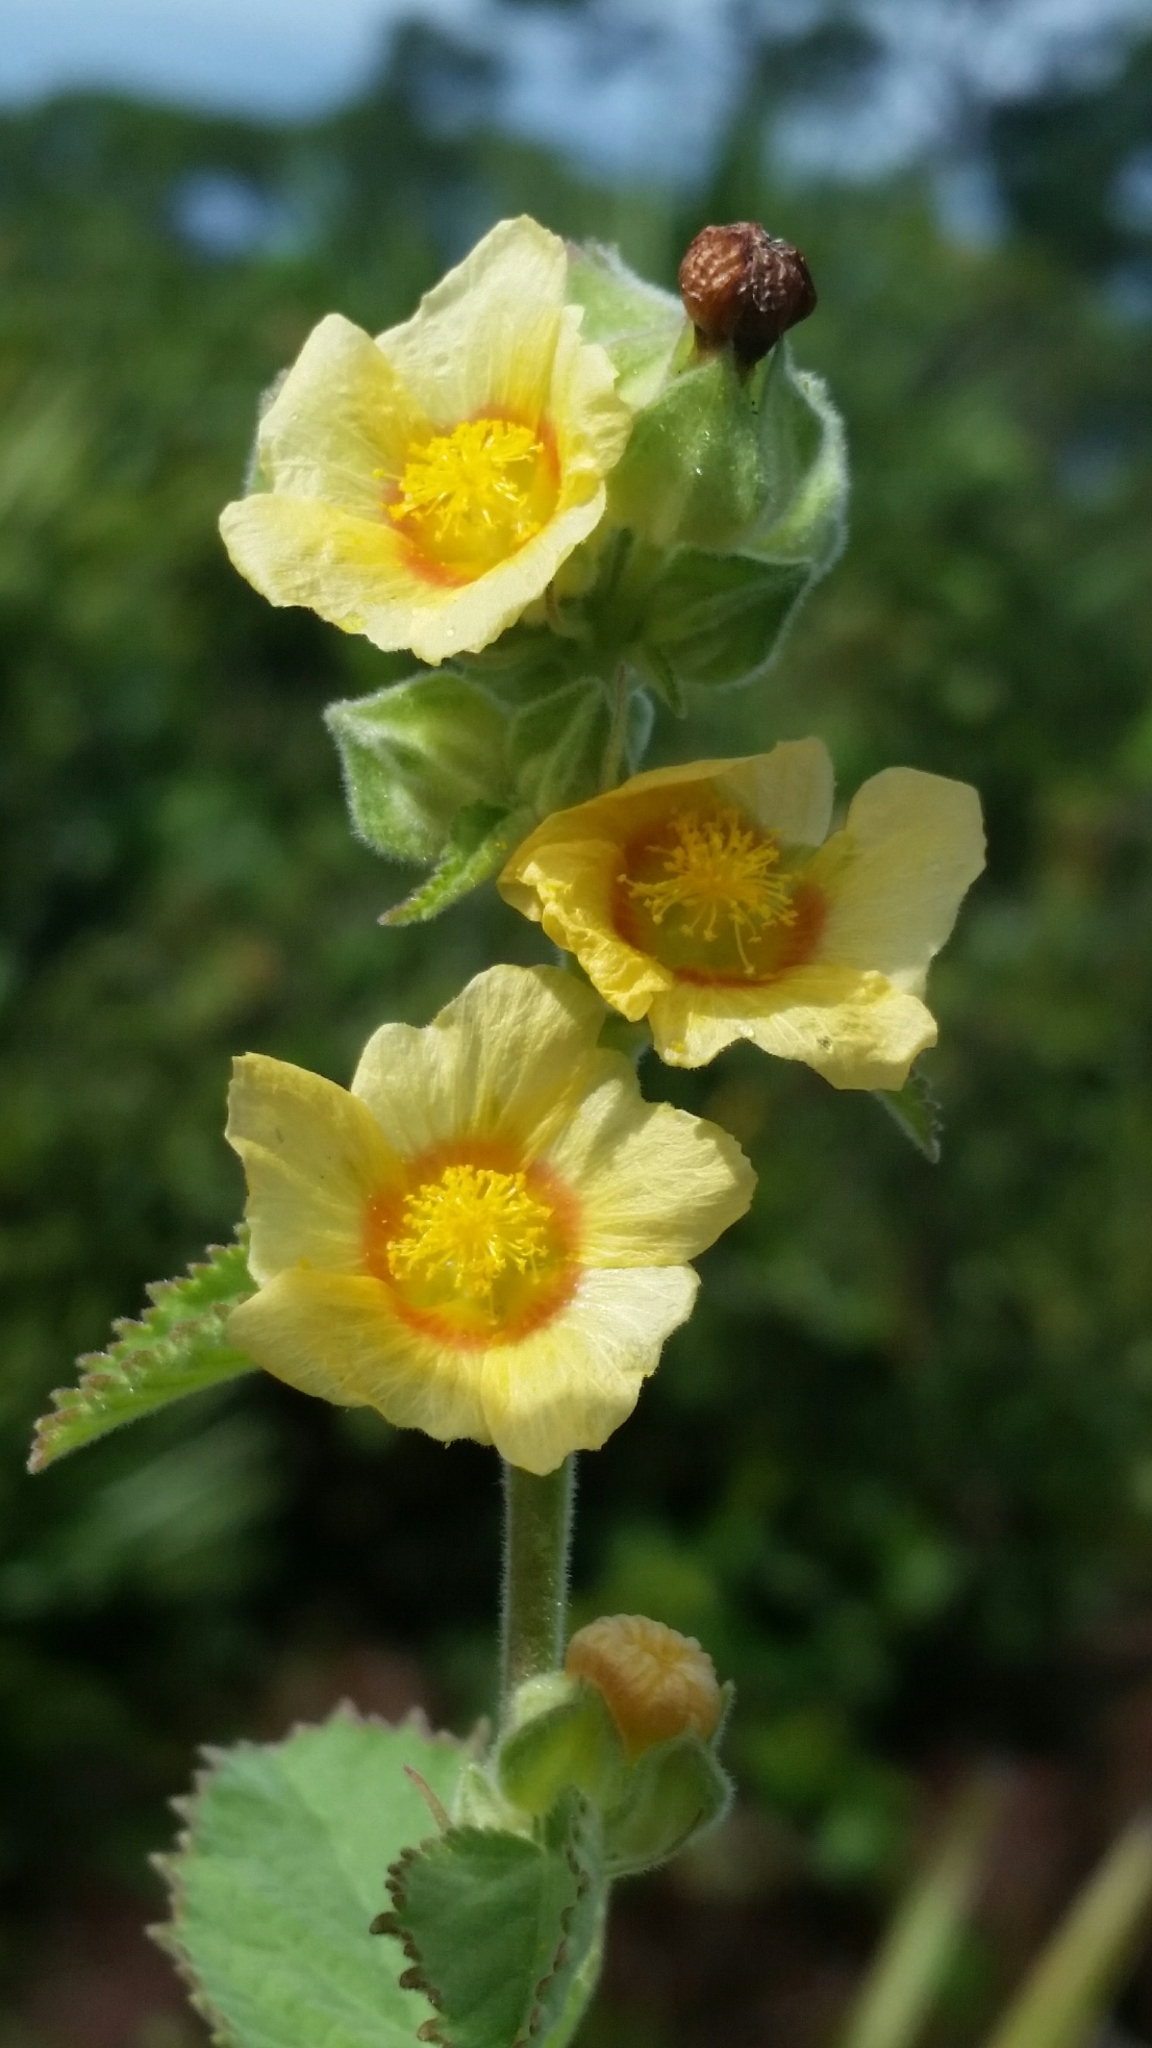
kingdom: Plantae
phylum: Tracheophyta
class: Magnoliopsida
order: Malvales
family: Malvaceae
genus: Sida
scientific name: Sida cordifolia
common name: Ilima
